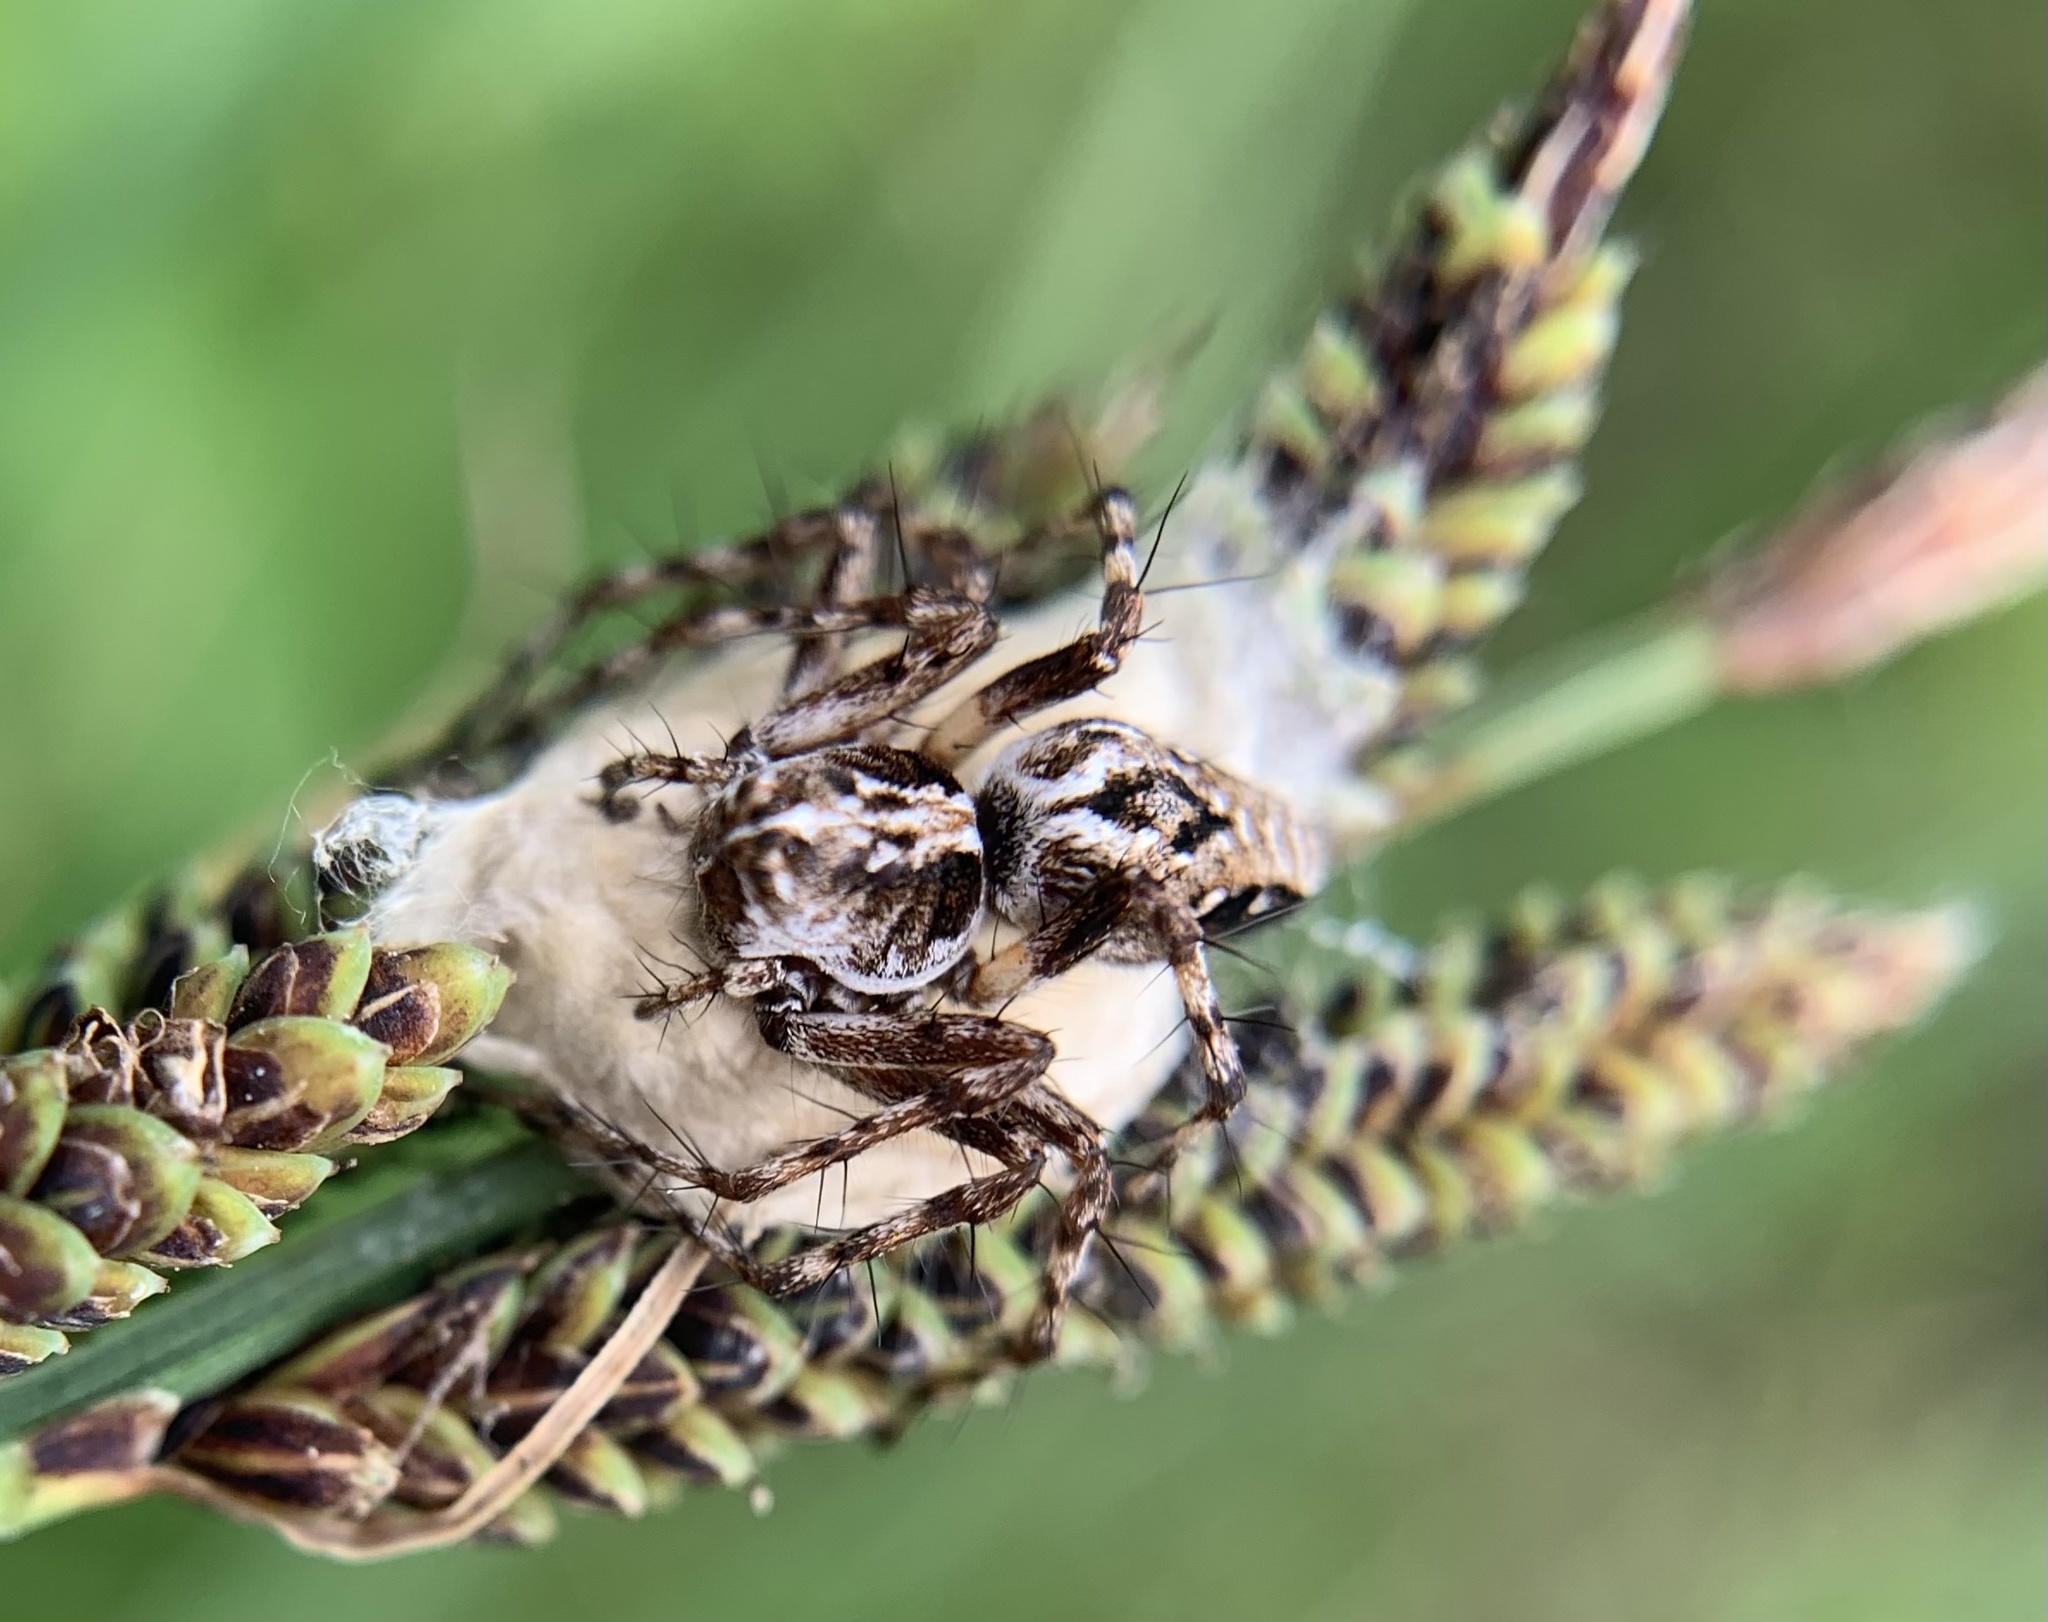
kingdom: Animalia
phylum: Arthropoda
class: Arachnida
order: Araneae
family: Oxyopidae
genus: Oxyopes
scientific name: Oxyopes ramosus
